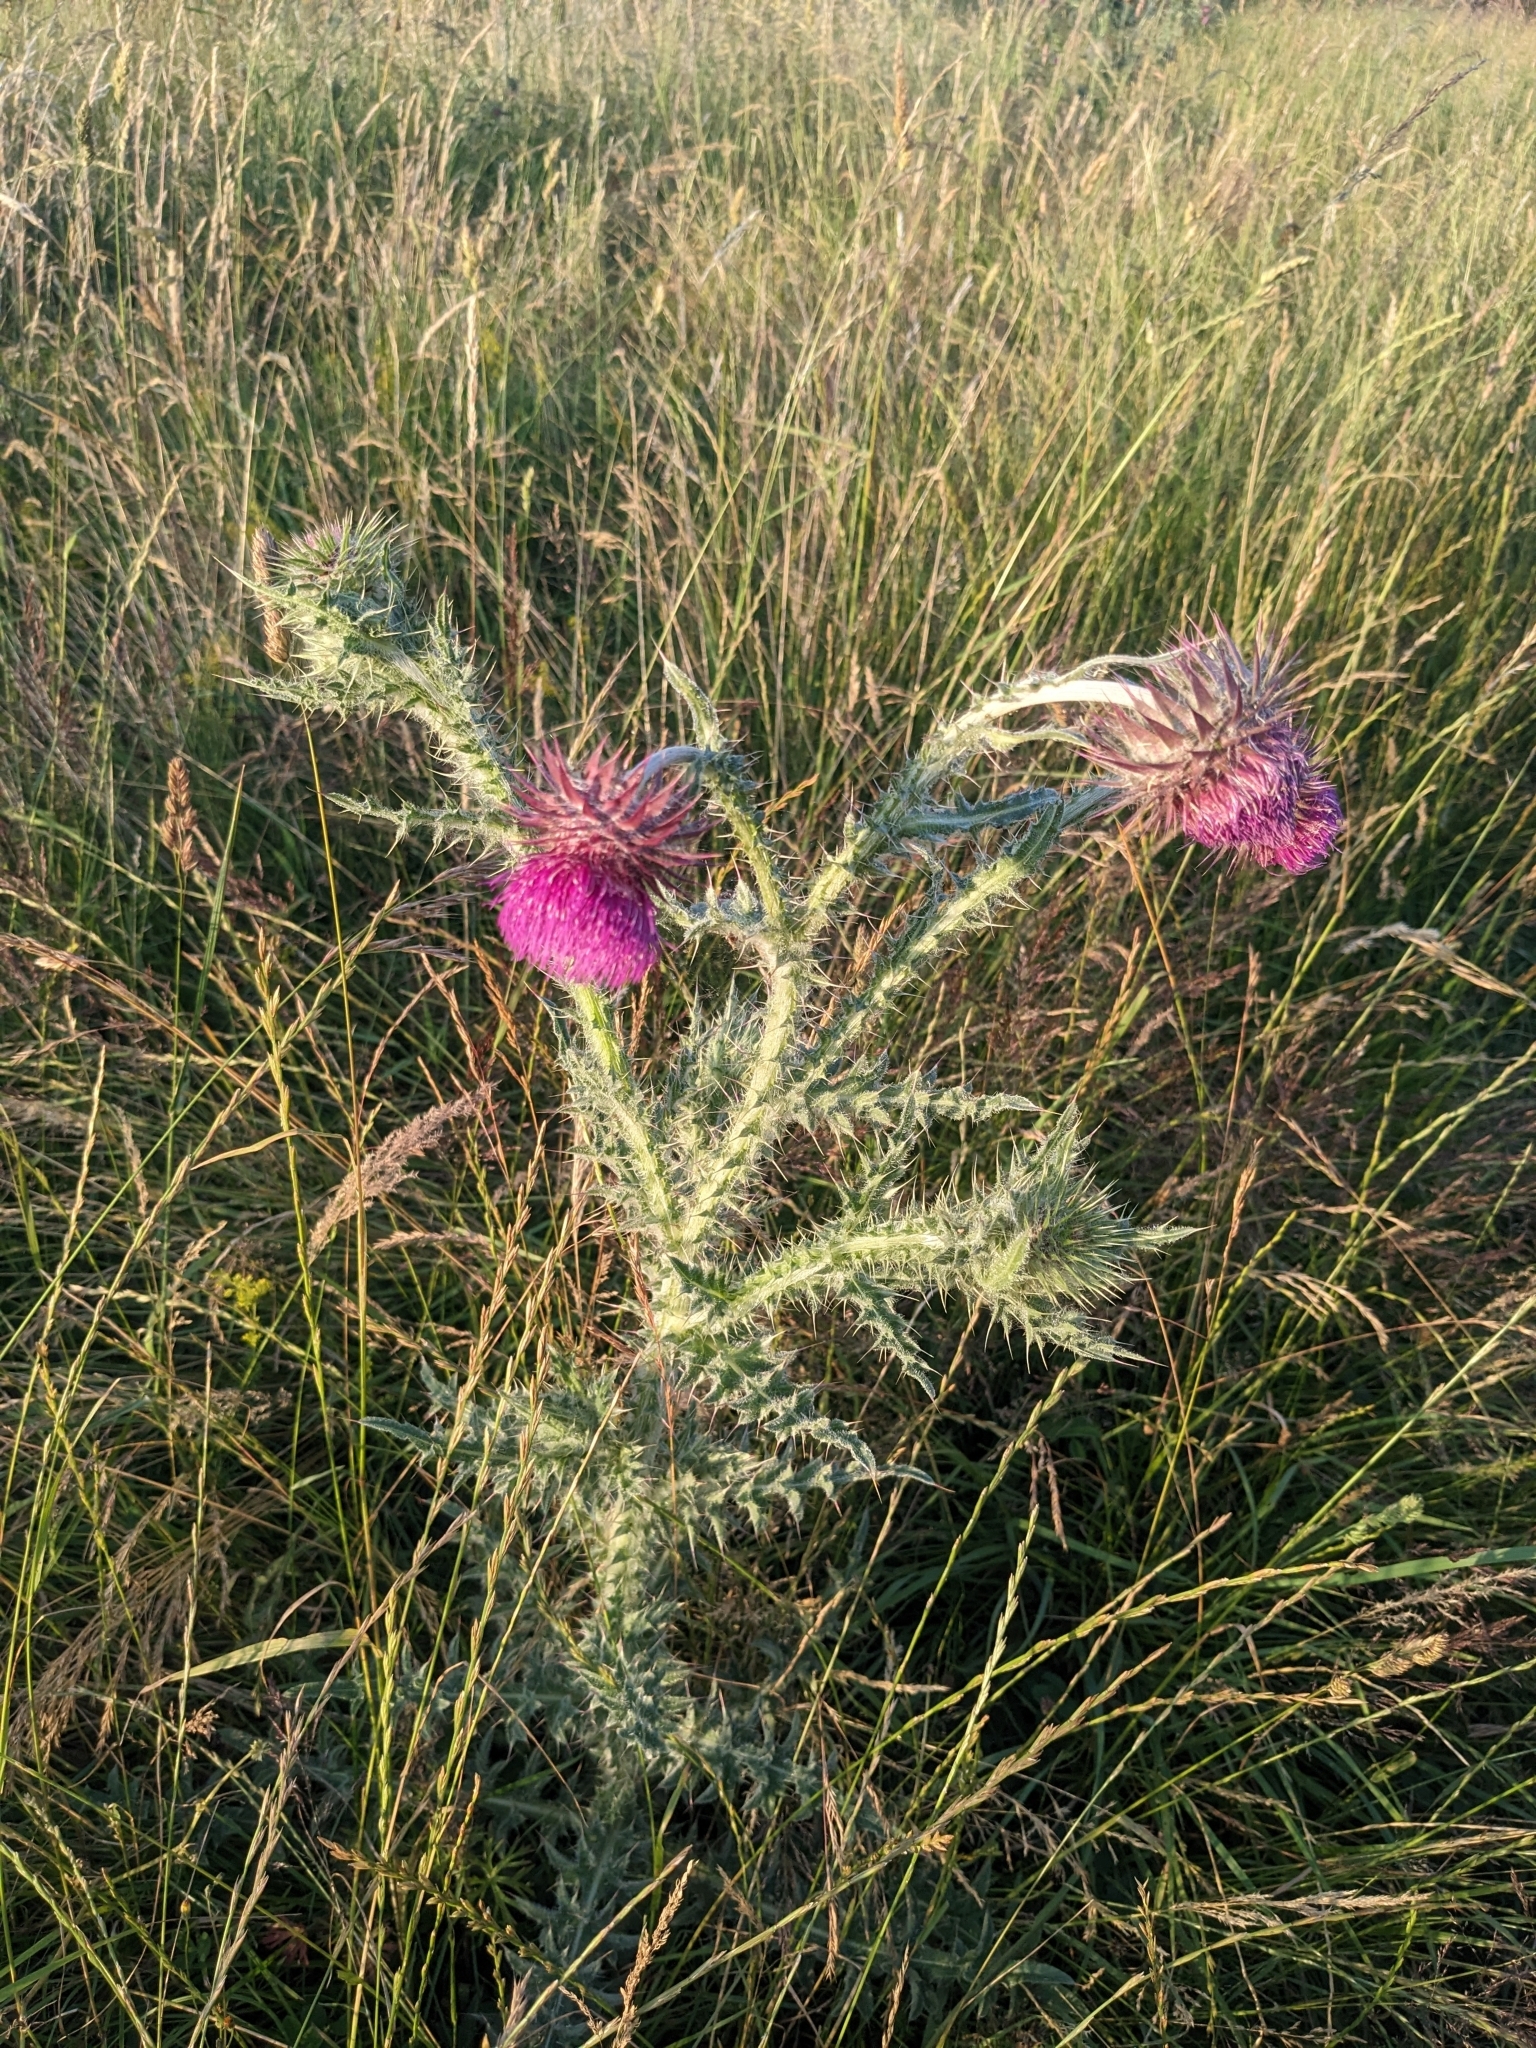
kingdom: Plantae
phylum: Tracheophyta
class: Magnoliopsida
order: Asterales
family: Asteraceae
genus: Carduus
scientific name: Carduus nutans
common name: Musk thistle
